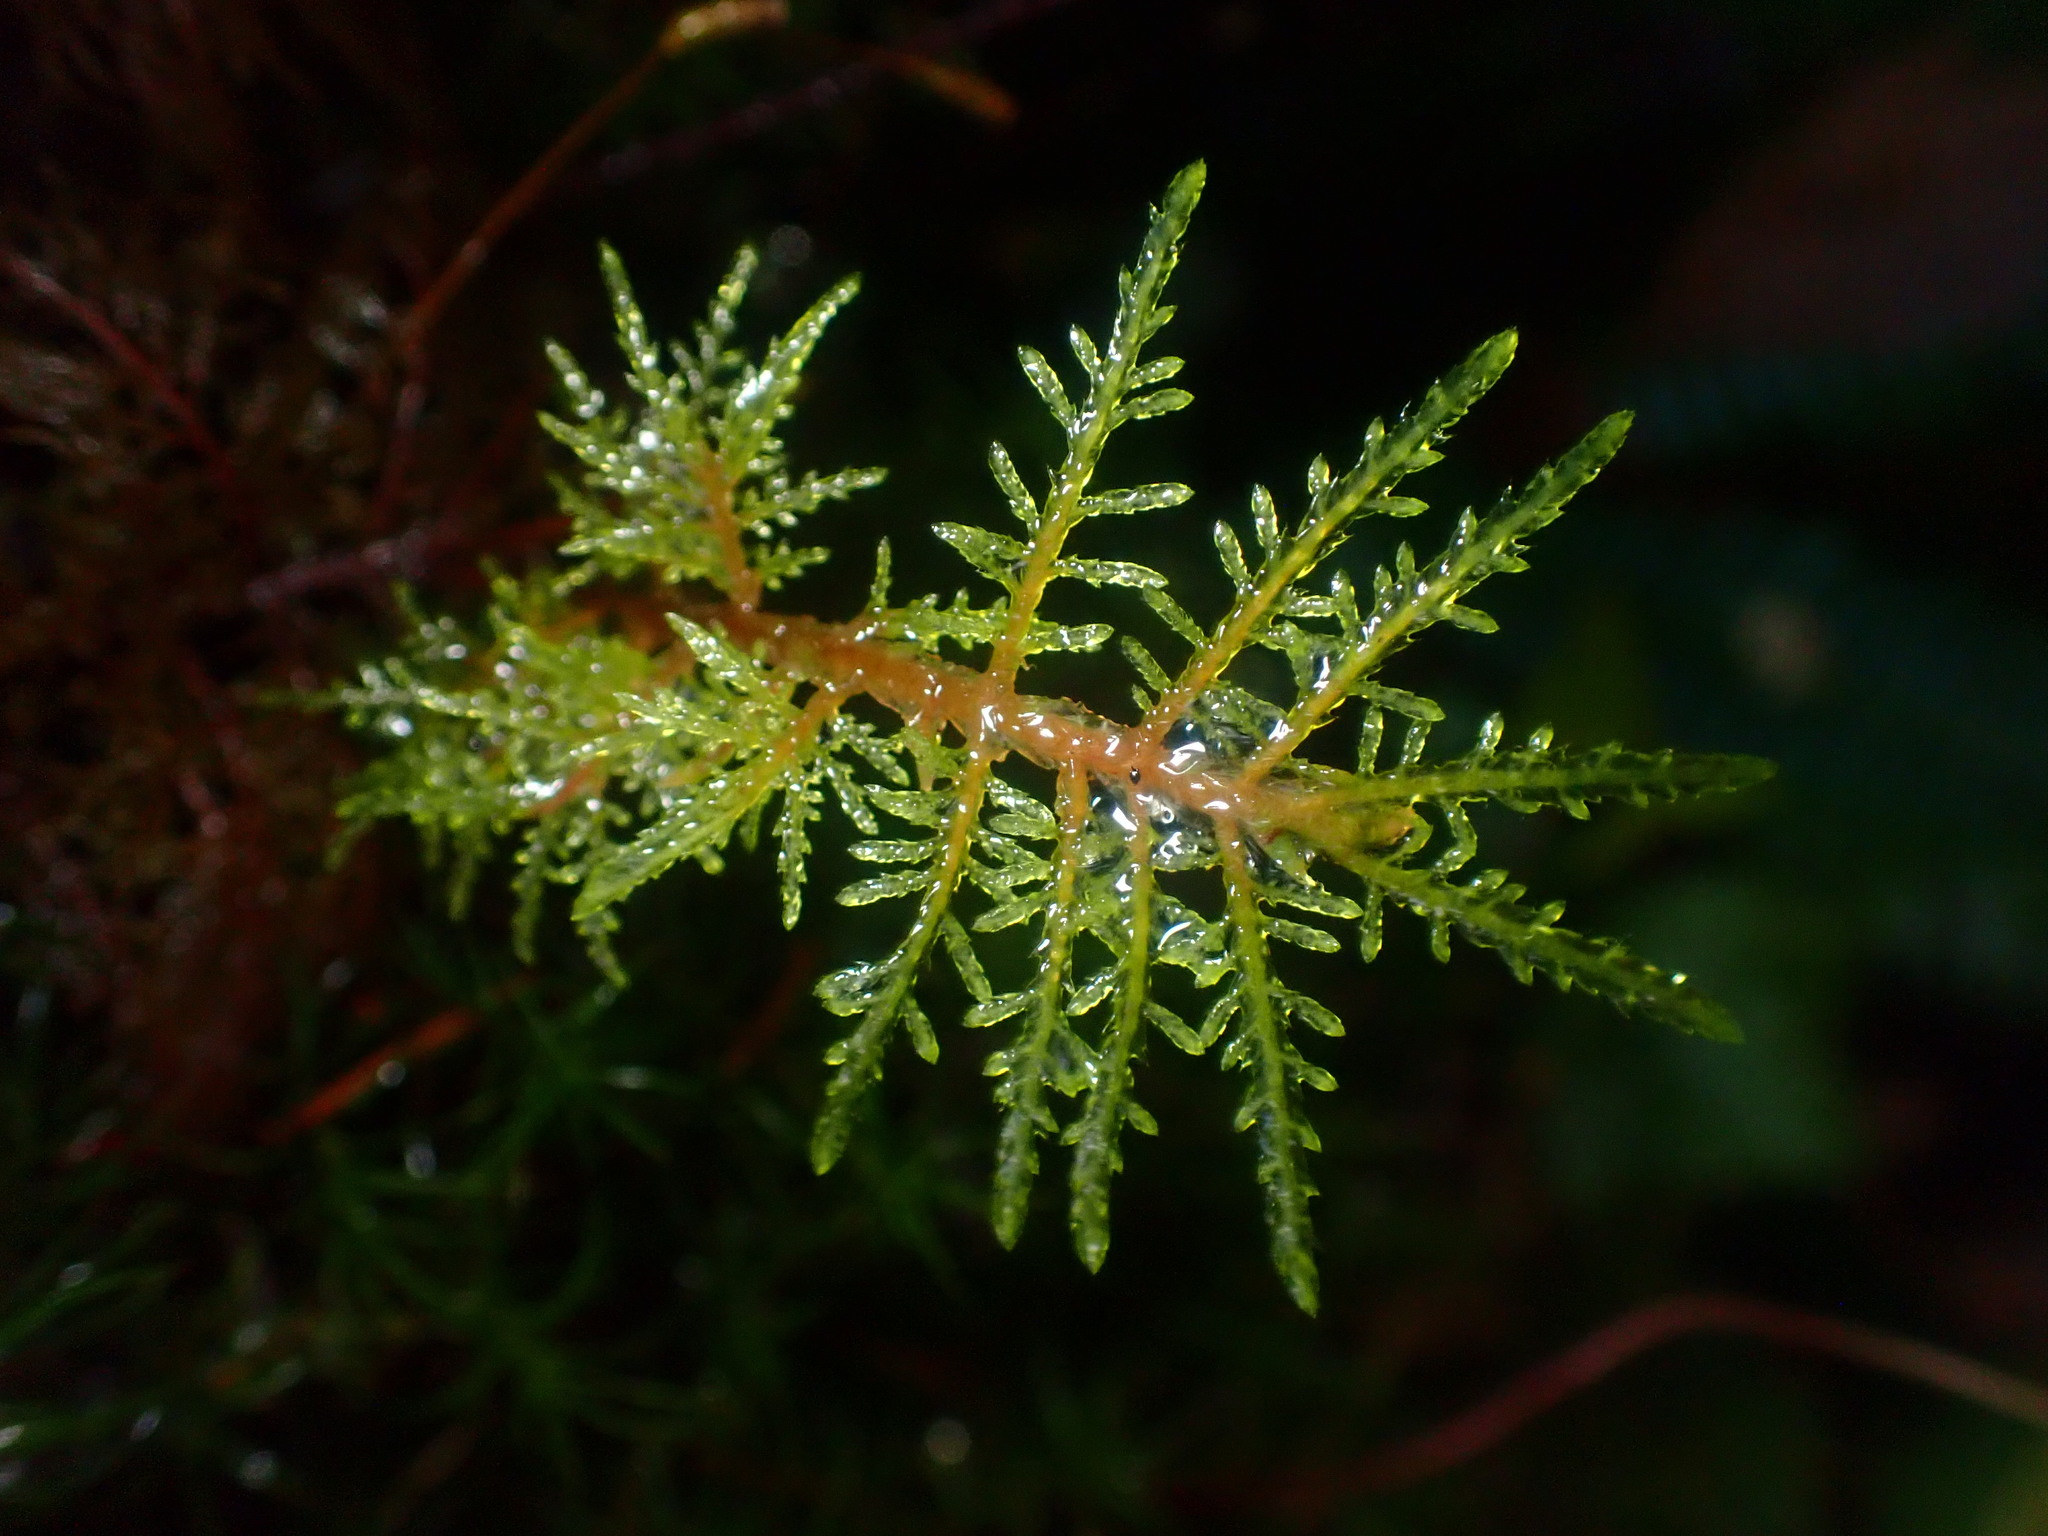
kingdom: Plantae
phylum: Bryophyta
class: Bryopsida
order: Hypnales
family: Hylocomiaceae
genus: Hylocomium
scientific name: Hylocomium splendens
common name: Stairstep moss
